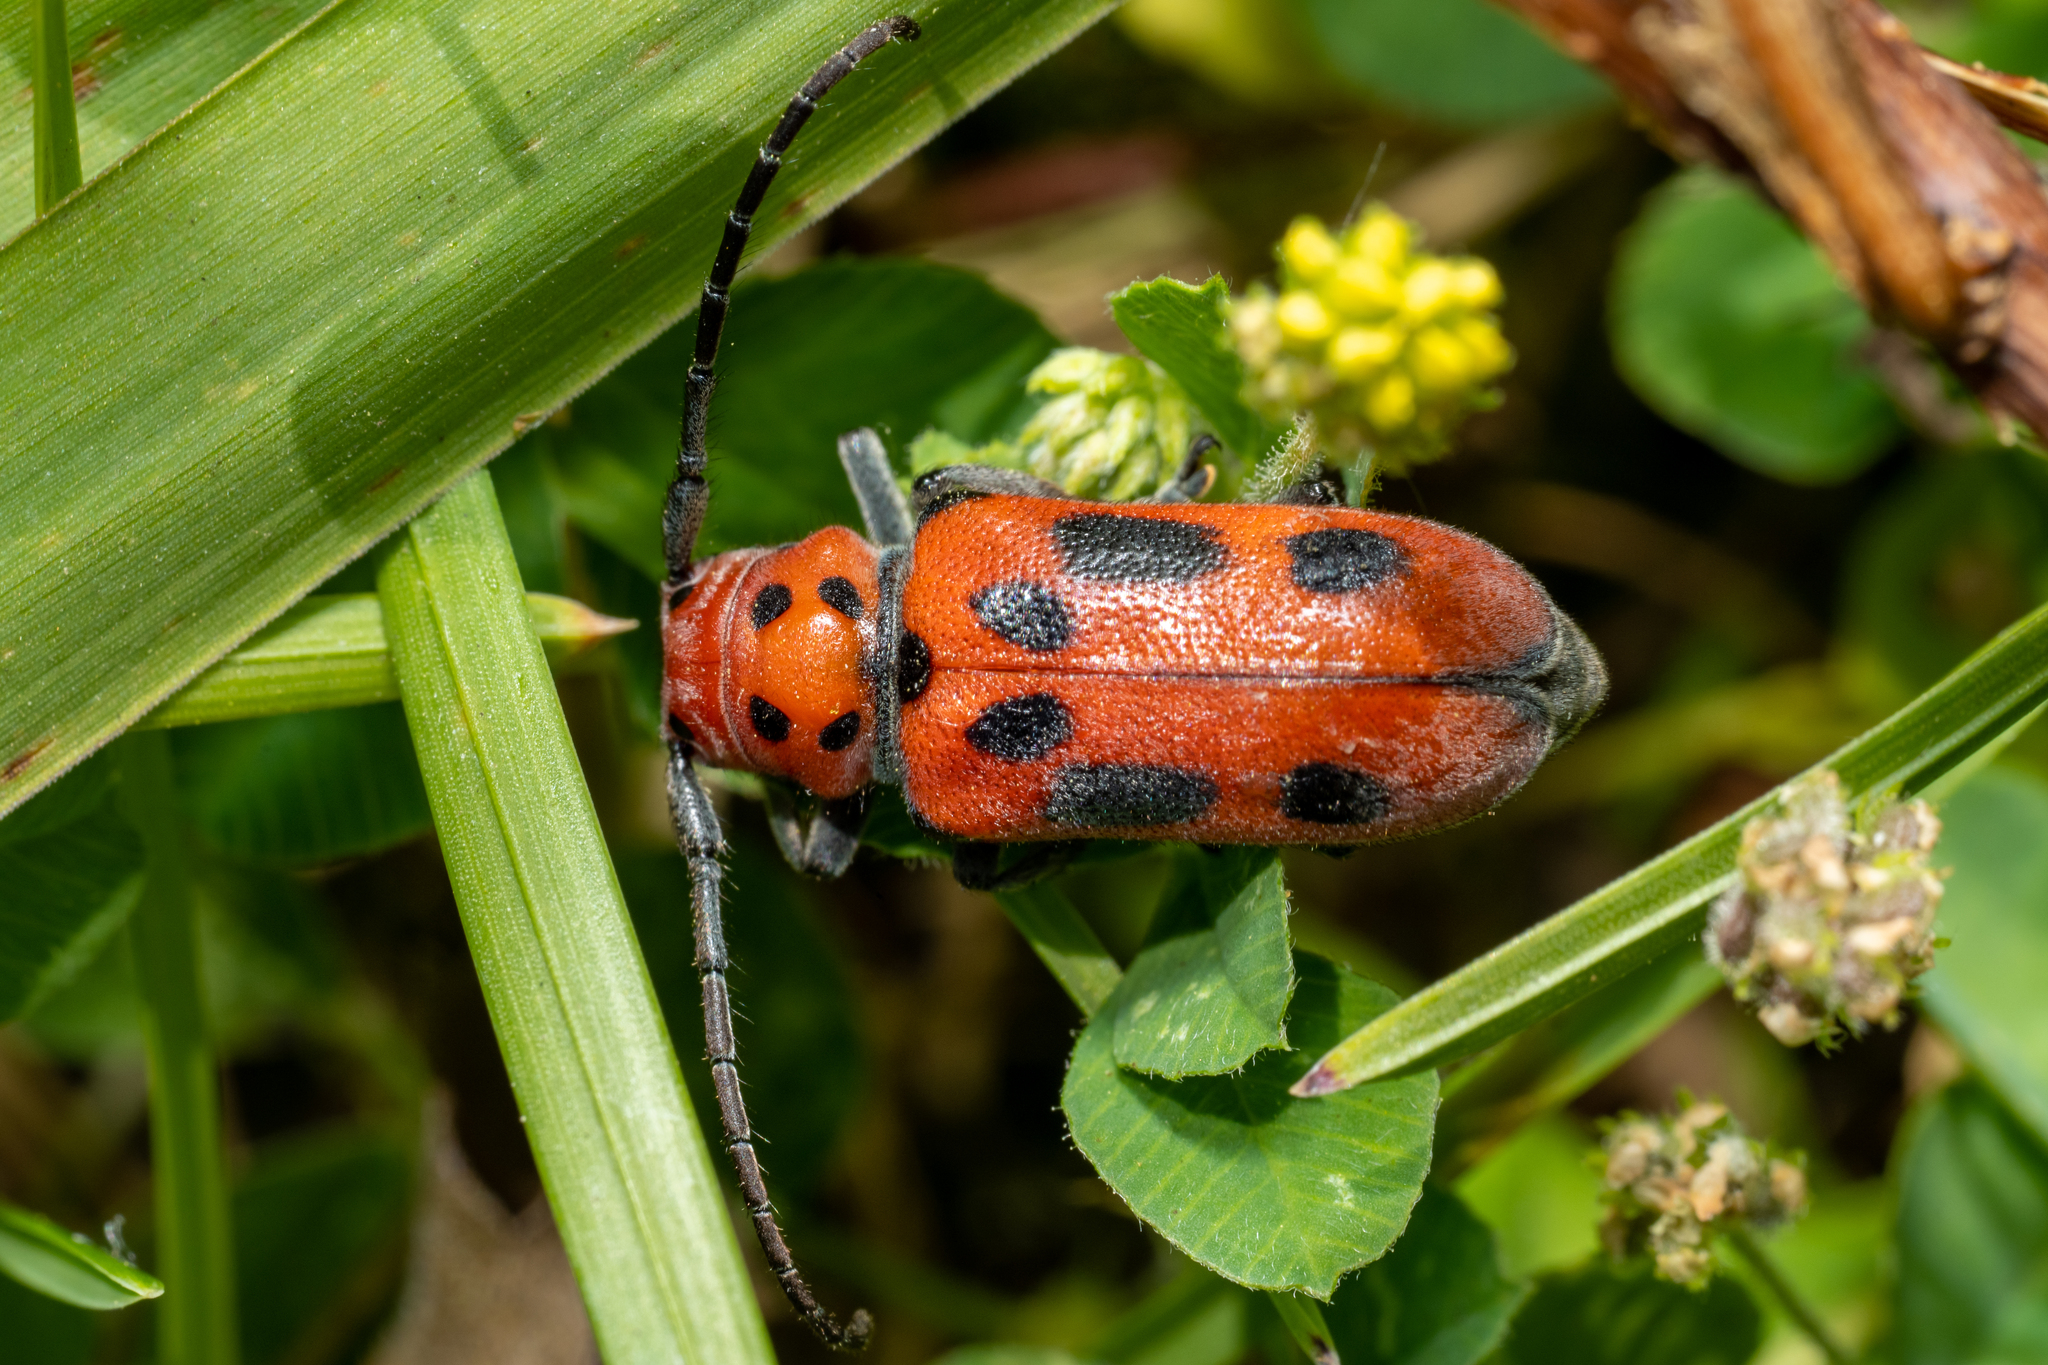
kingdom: Animalia
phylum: Arthropoda
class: Insecta
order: Coleoptera
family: Cerambycidae
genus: Tetraopes
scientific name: Tetraopes tetrophthalmus
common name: Red milkweed beetle
